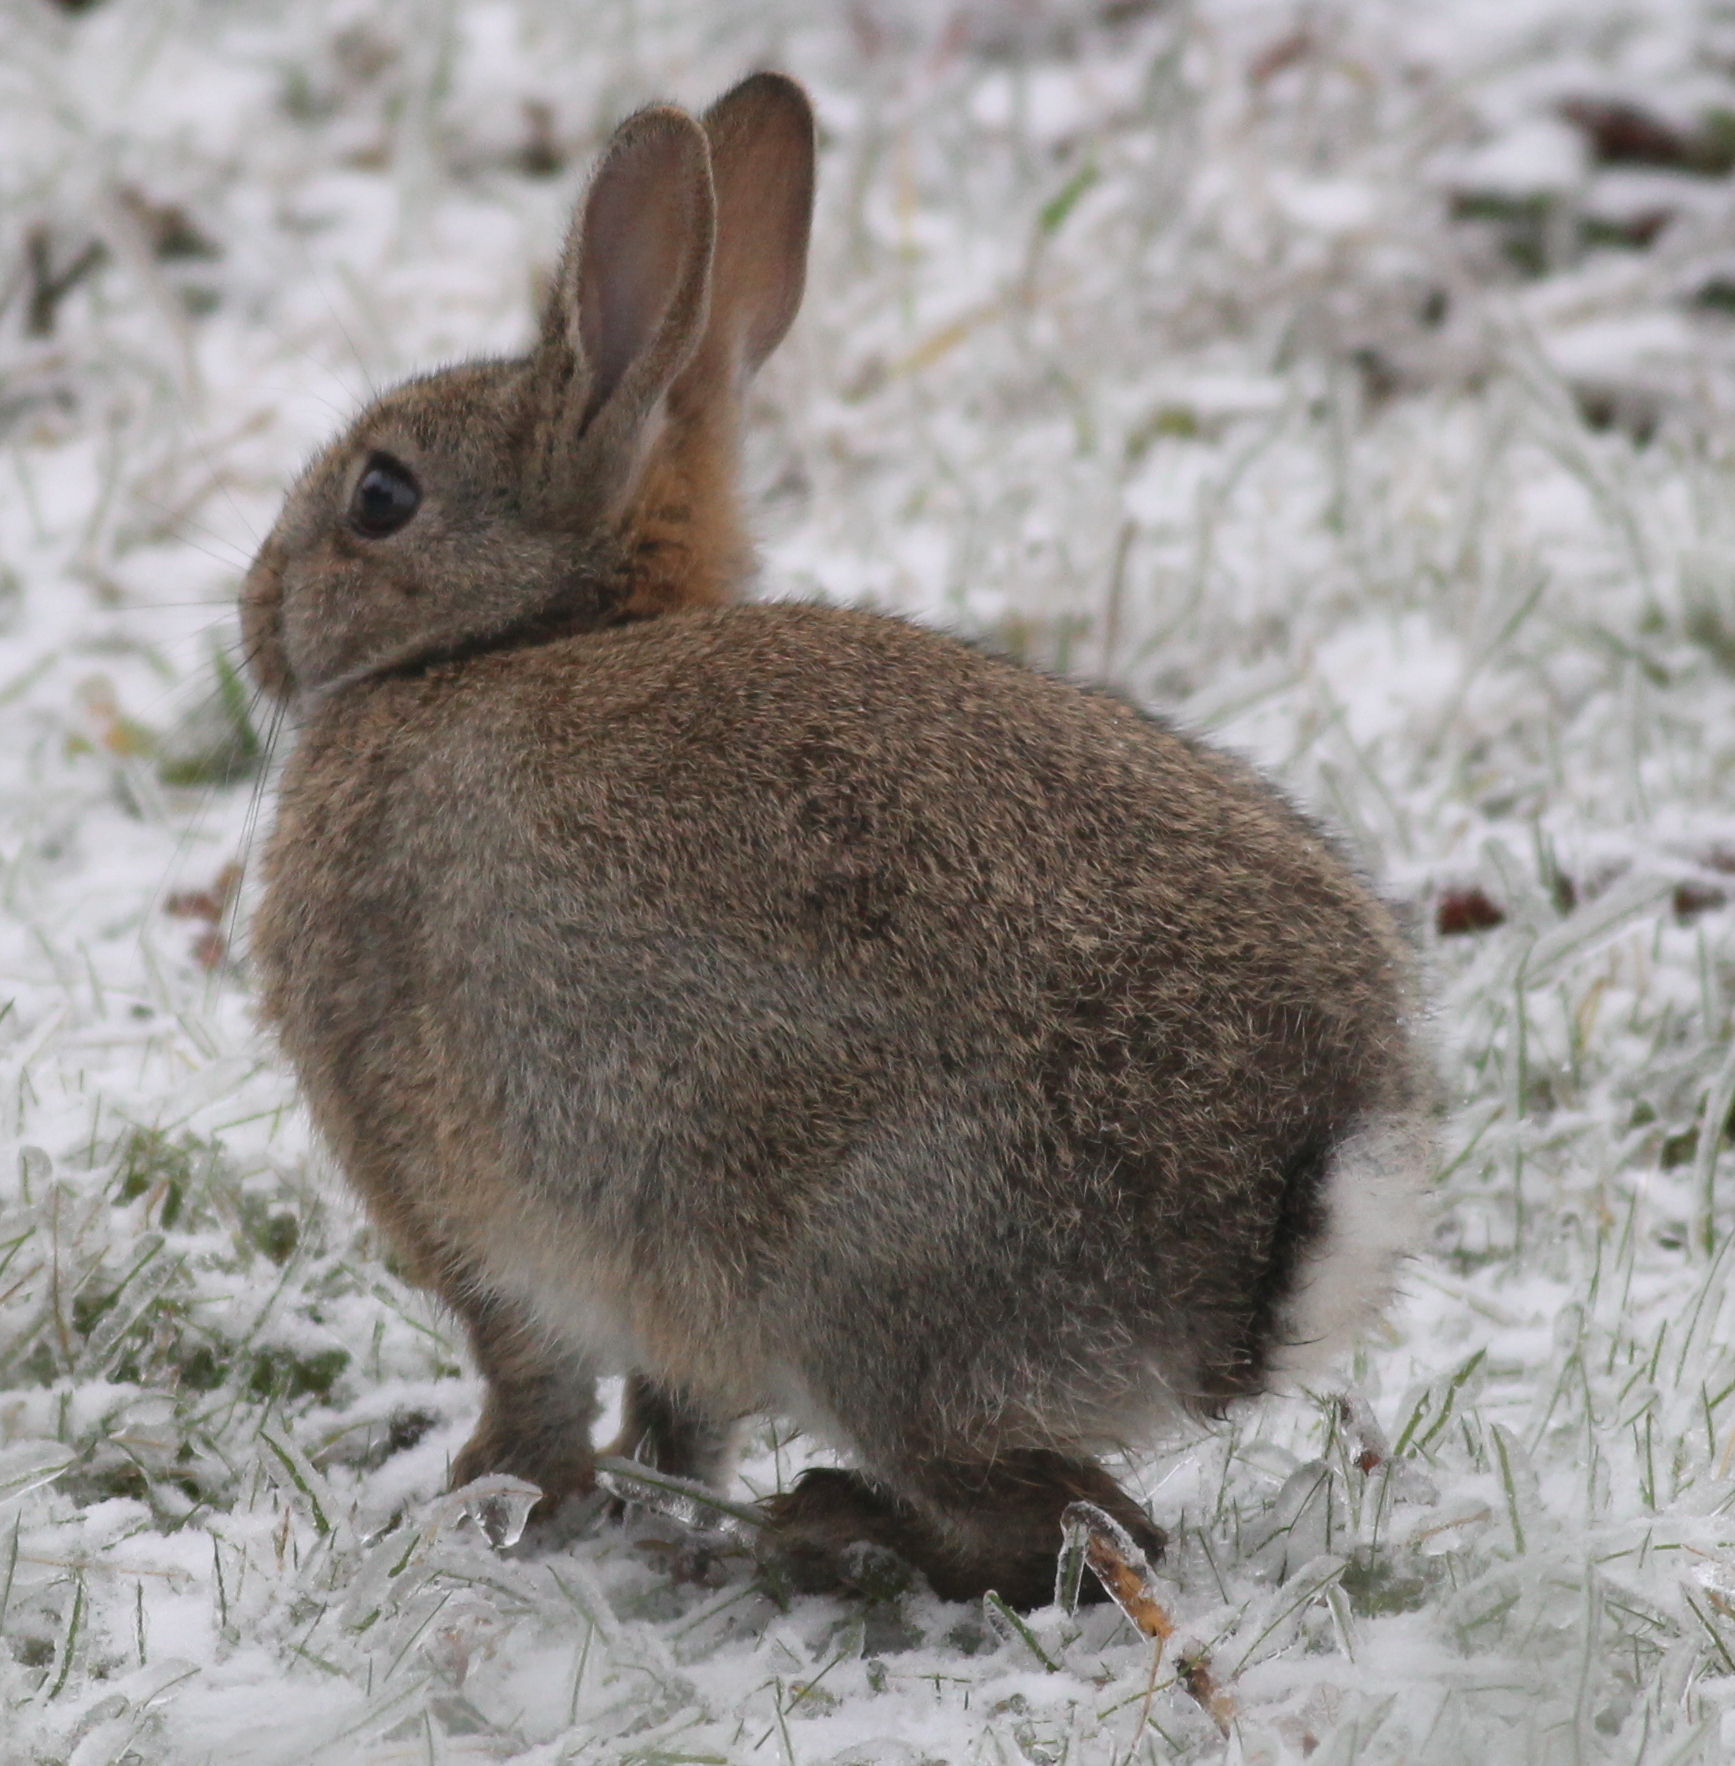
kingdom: Animalia
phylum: Chordata
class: Mammalia
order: Lagomorpha
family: Leporidae
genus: Oryctolagus
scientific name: Oryctolagus cuniculus
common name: European rabbit
